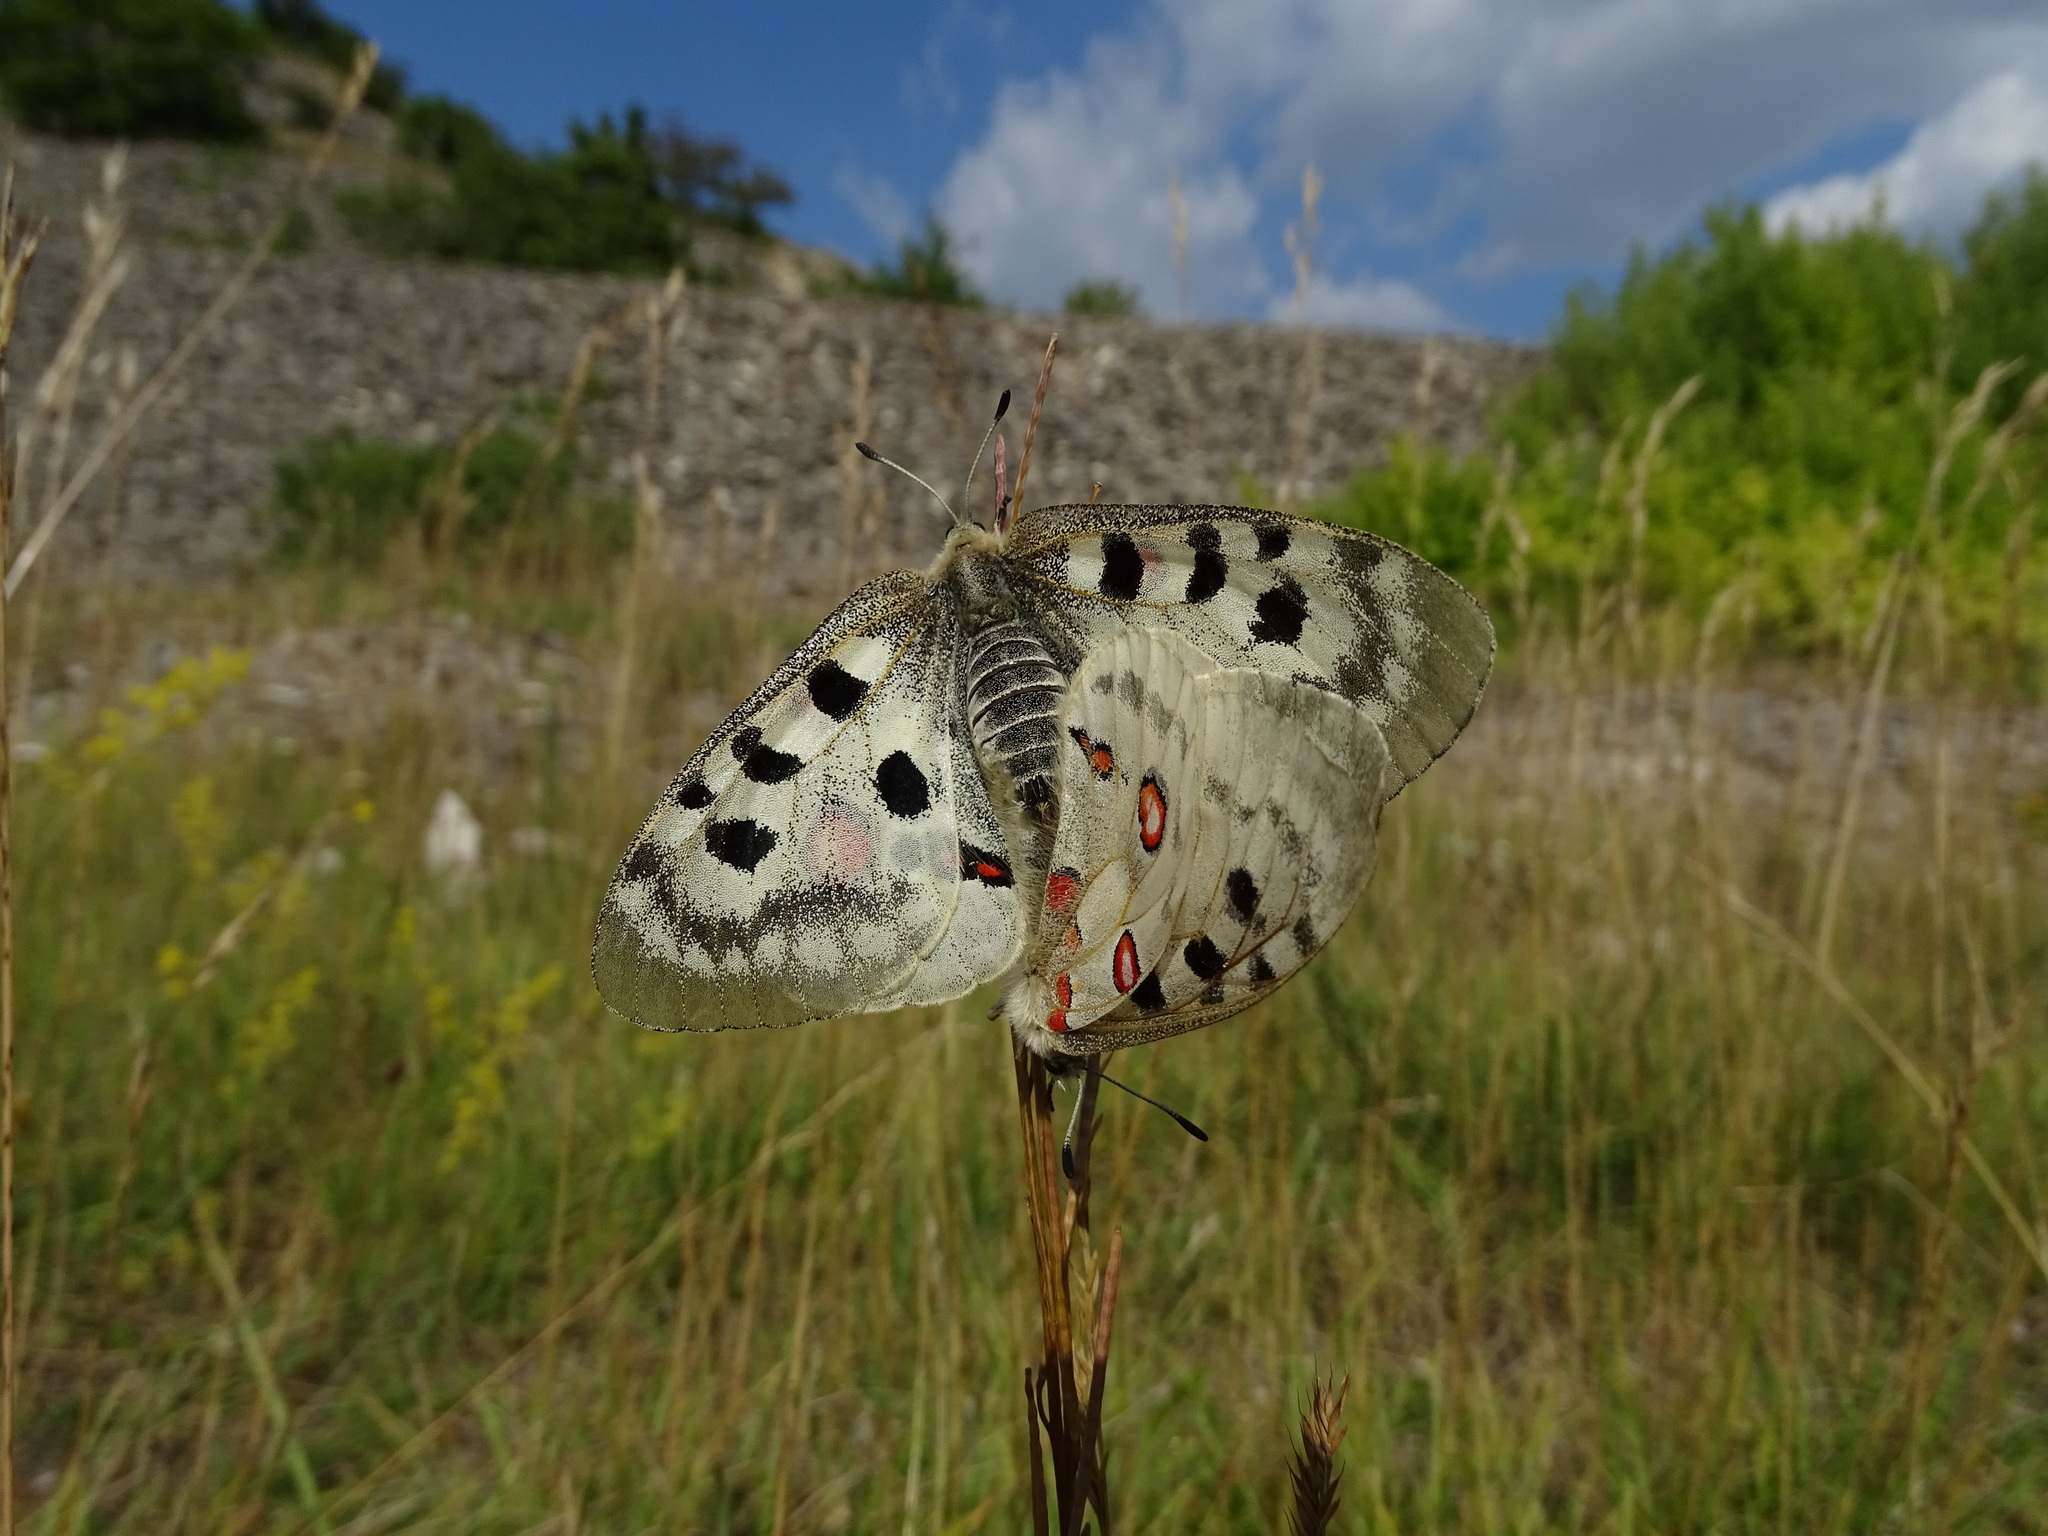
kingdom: Animalia
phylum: Arthropoda
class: Insecta
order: Lepidoptera
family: Papilionidae
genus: Parnassius
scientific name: Parnassius apollo
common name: Apollo
